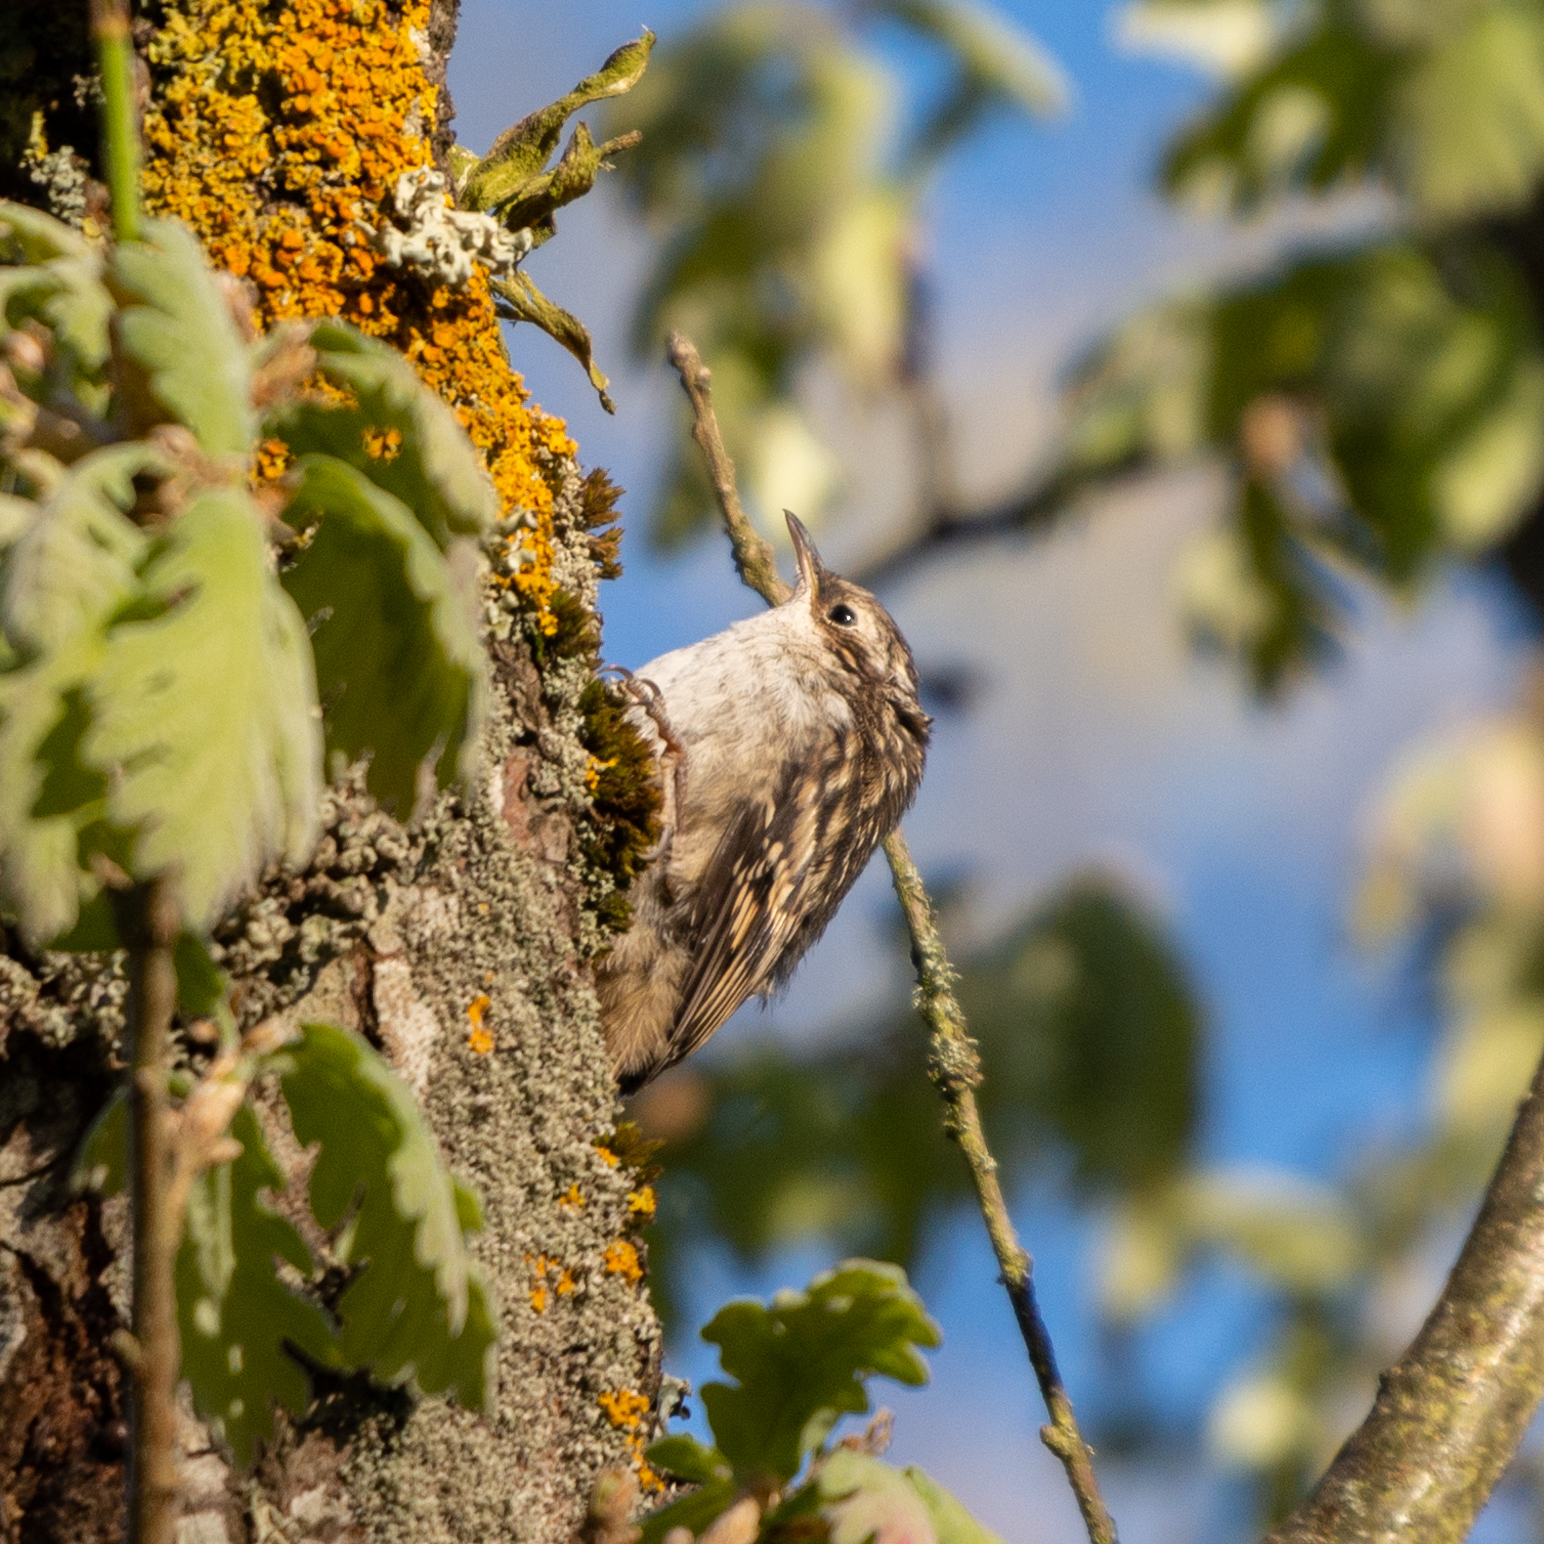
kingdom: Animalia
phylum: Chordata
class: Aves
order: Passeriformes
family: Certhiidae
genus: Certhia
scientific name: Certhia familiaris
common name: Eurasian treecreeper
